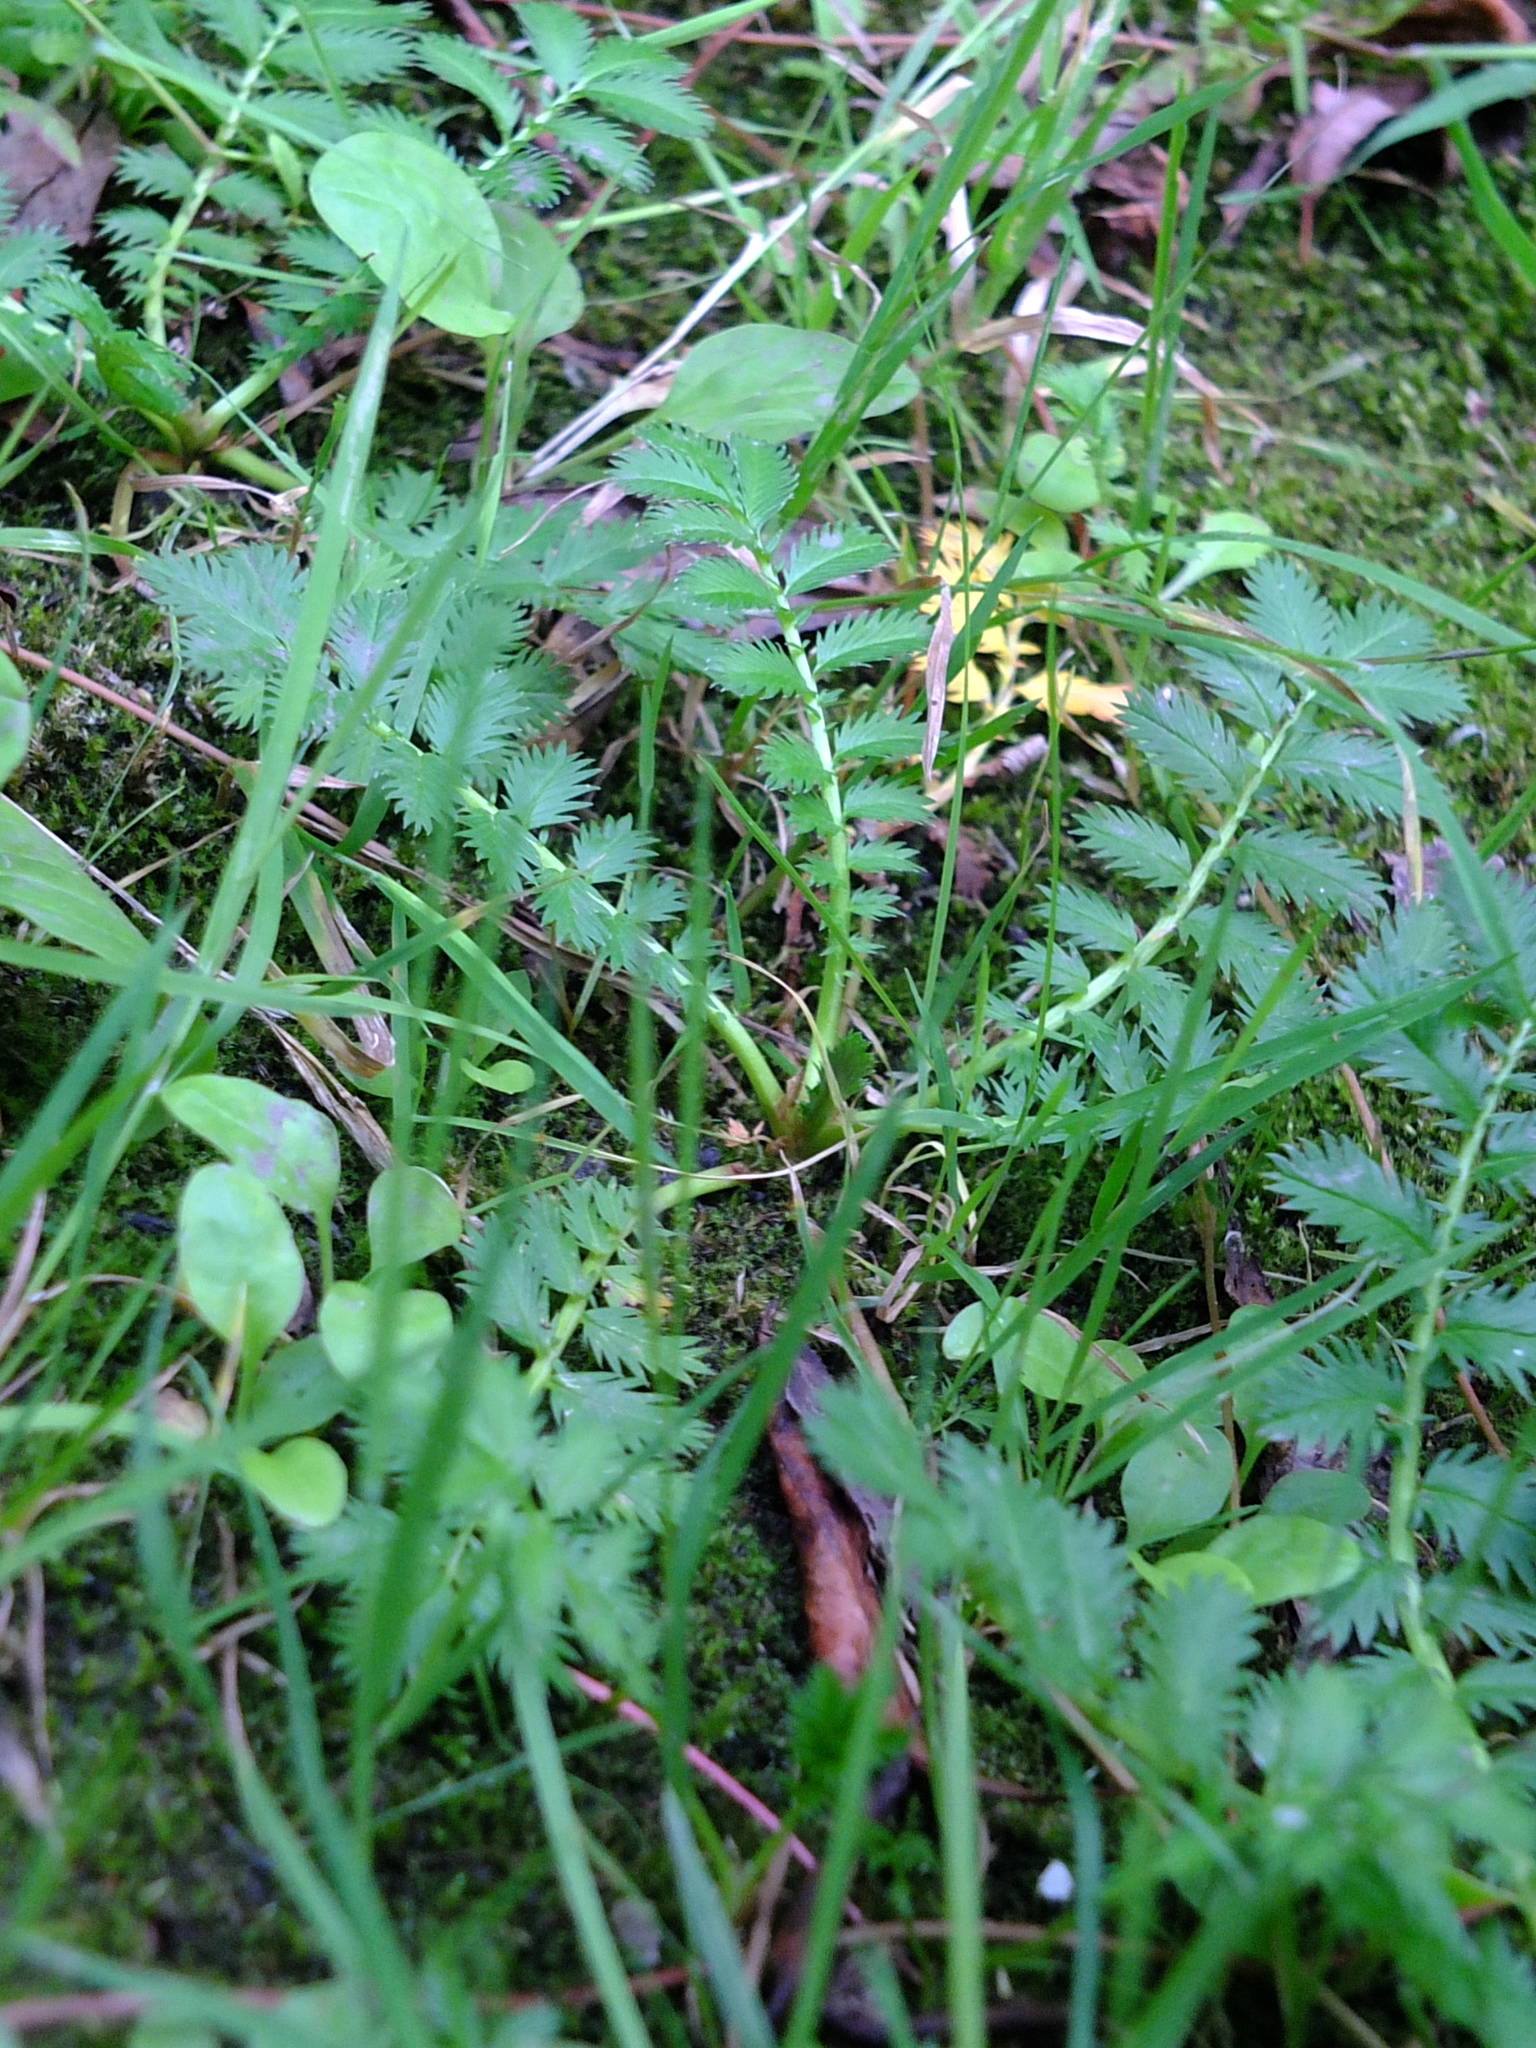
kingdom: Plantae
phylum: Tracheophyta
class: Magnoliopsida
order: Rosales
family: Rosaceae
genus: Argentina
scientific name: Argentina anserina
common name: Common silverweed
